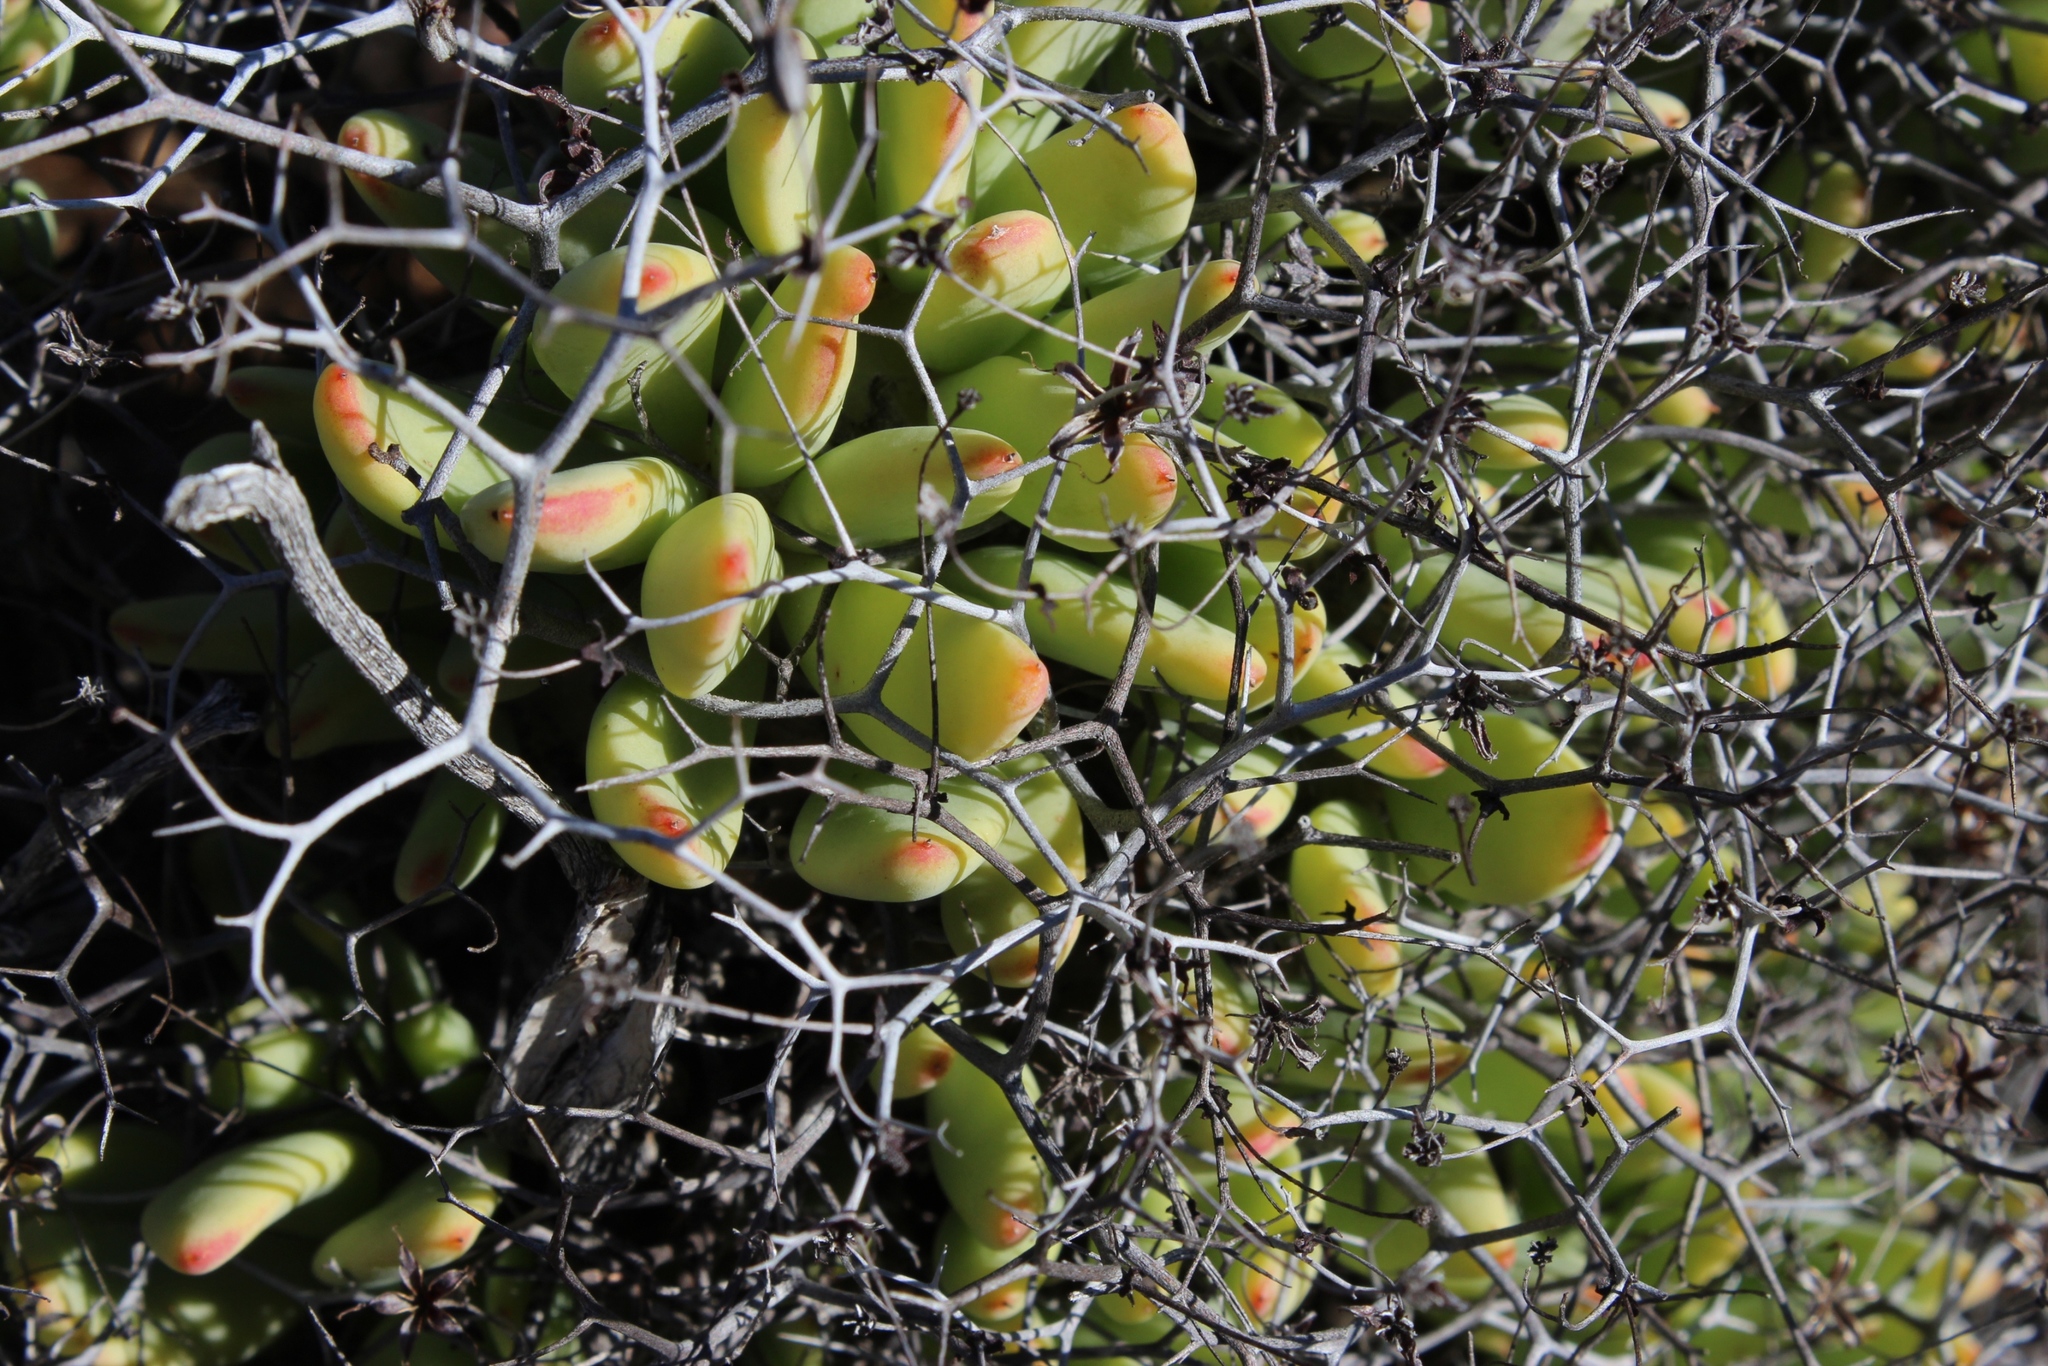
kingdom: Plantae
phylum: Tracheophyta
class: Magnoliopsida
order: Saxifragales
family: Crassulaceae
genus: Tylecodon
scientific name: Tylecodon reticulatus
